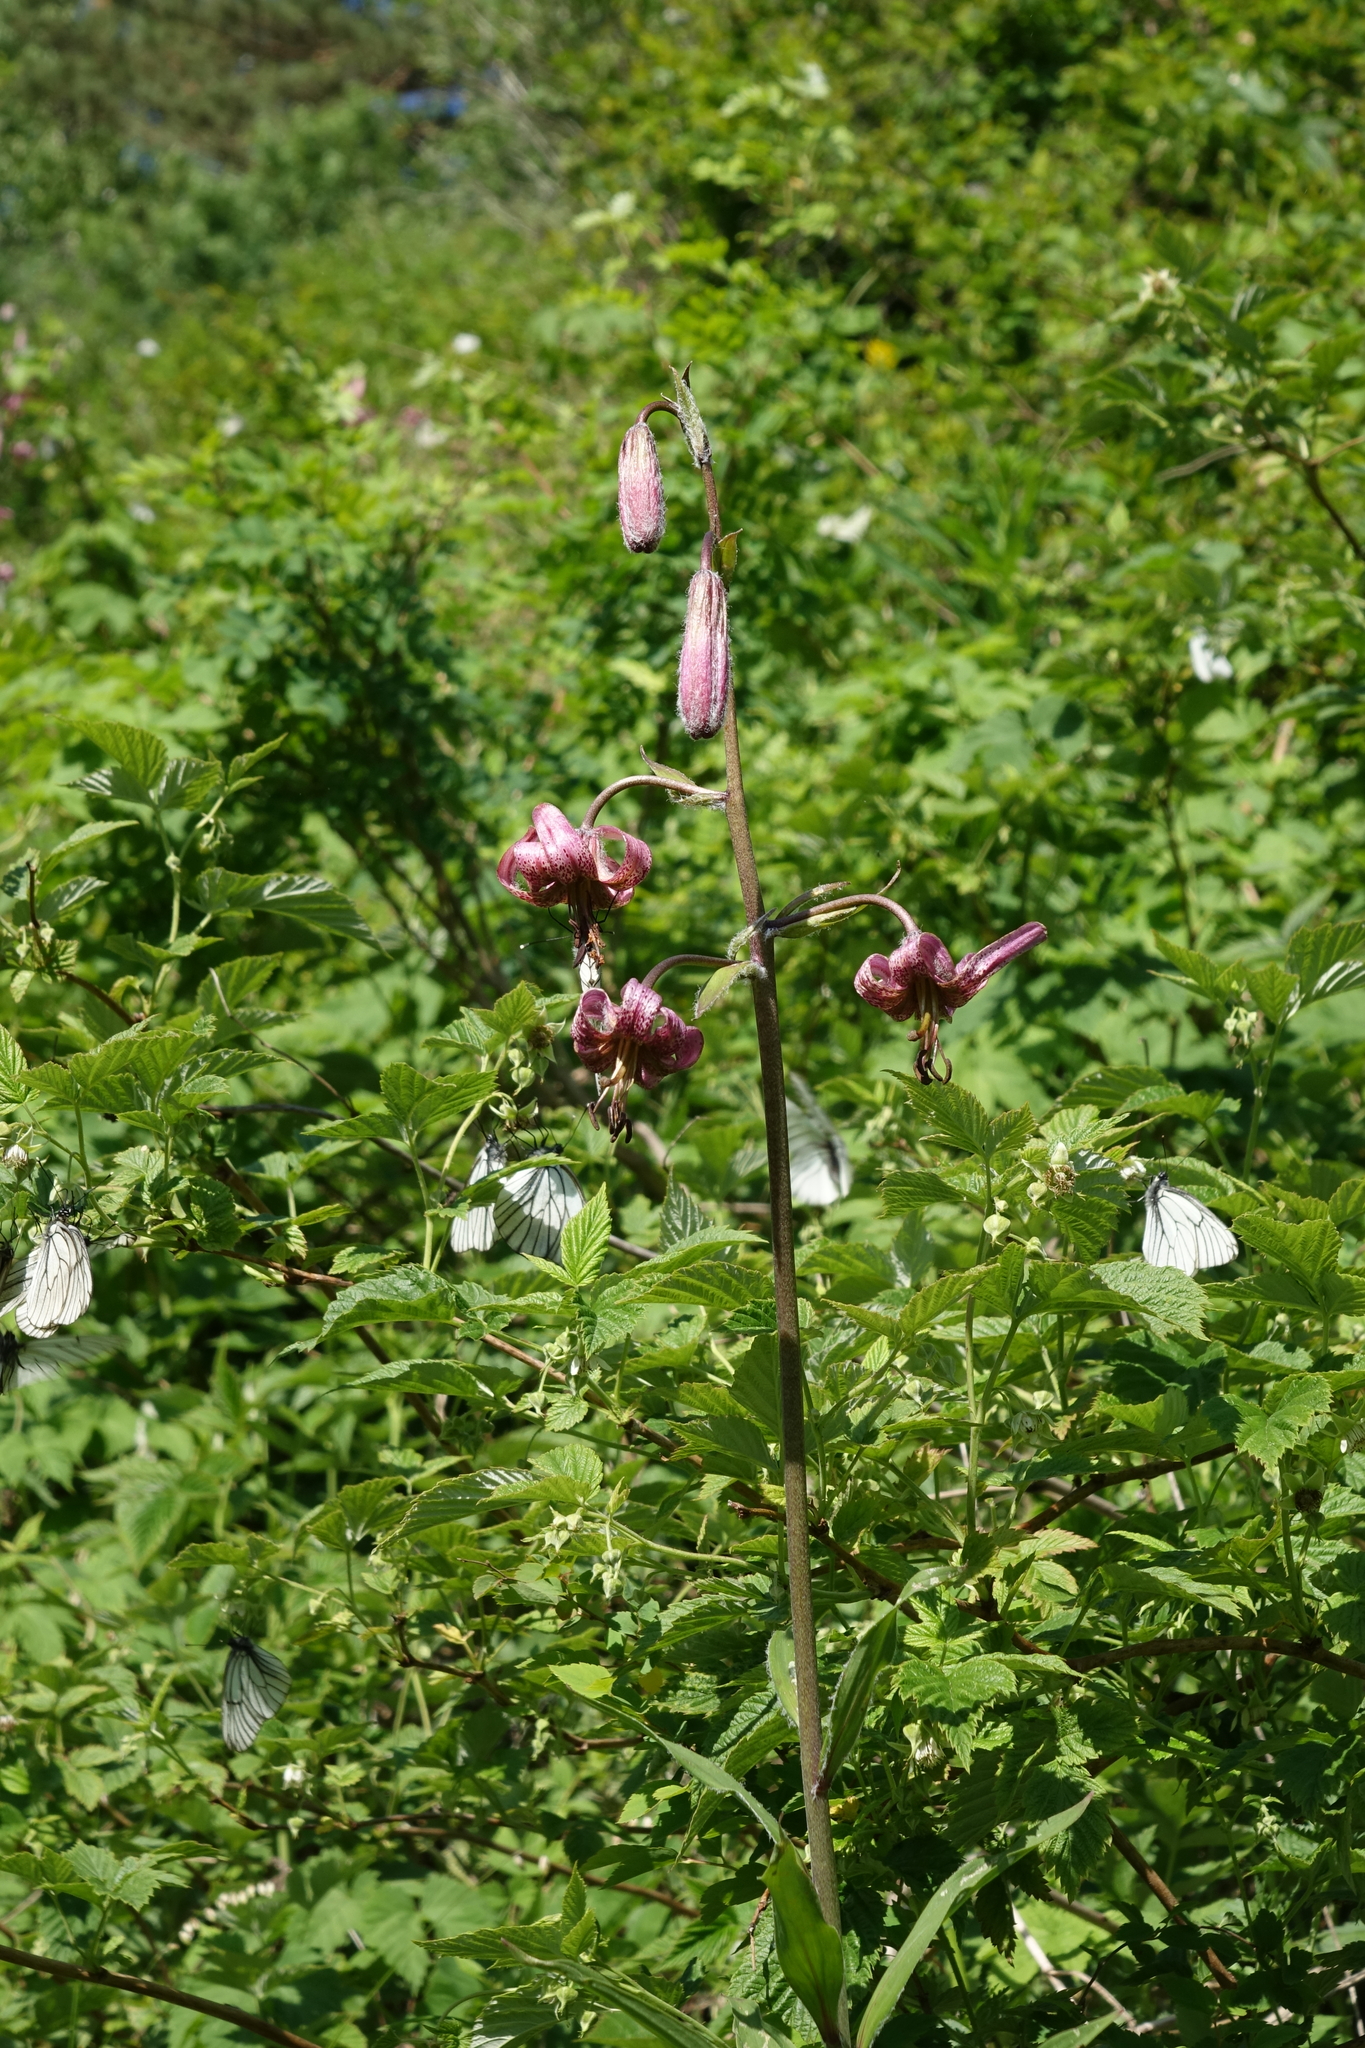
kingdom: Plantae
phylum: Tracheophyta
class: Liliopsida
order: Liliales
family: Liliaceae
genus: Lilium
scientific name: Lilium martagon
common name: Martagon lily
